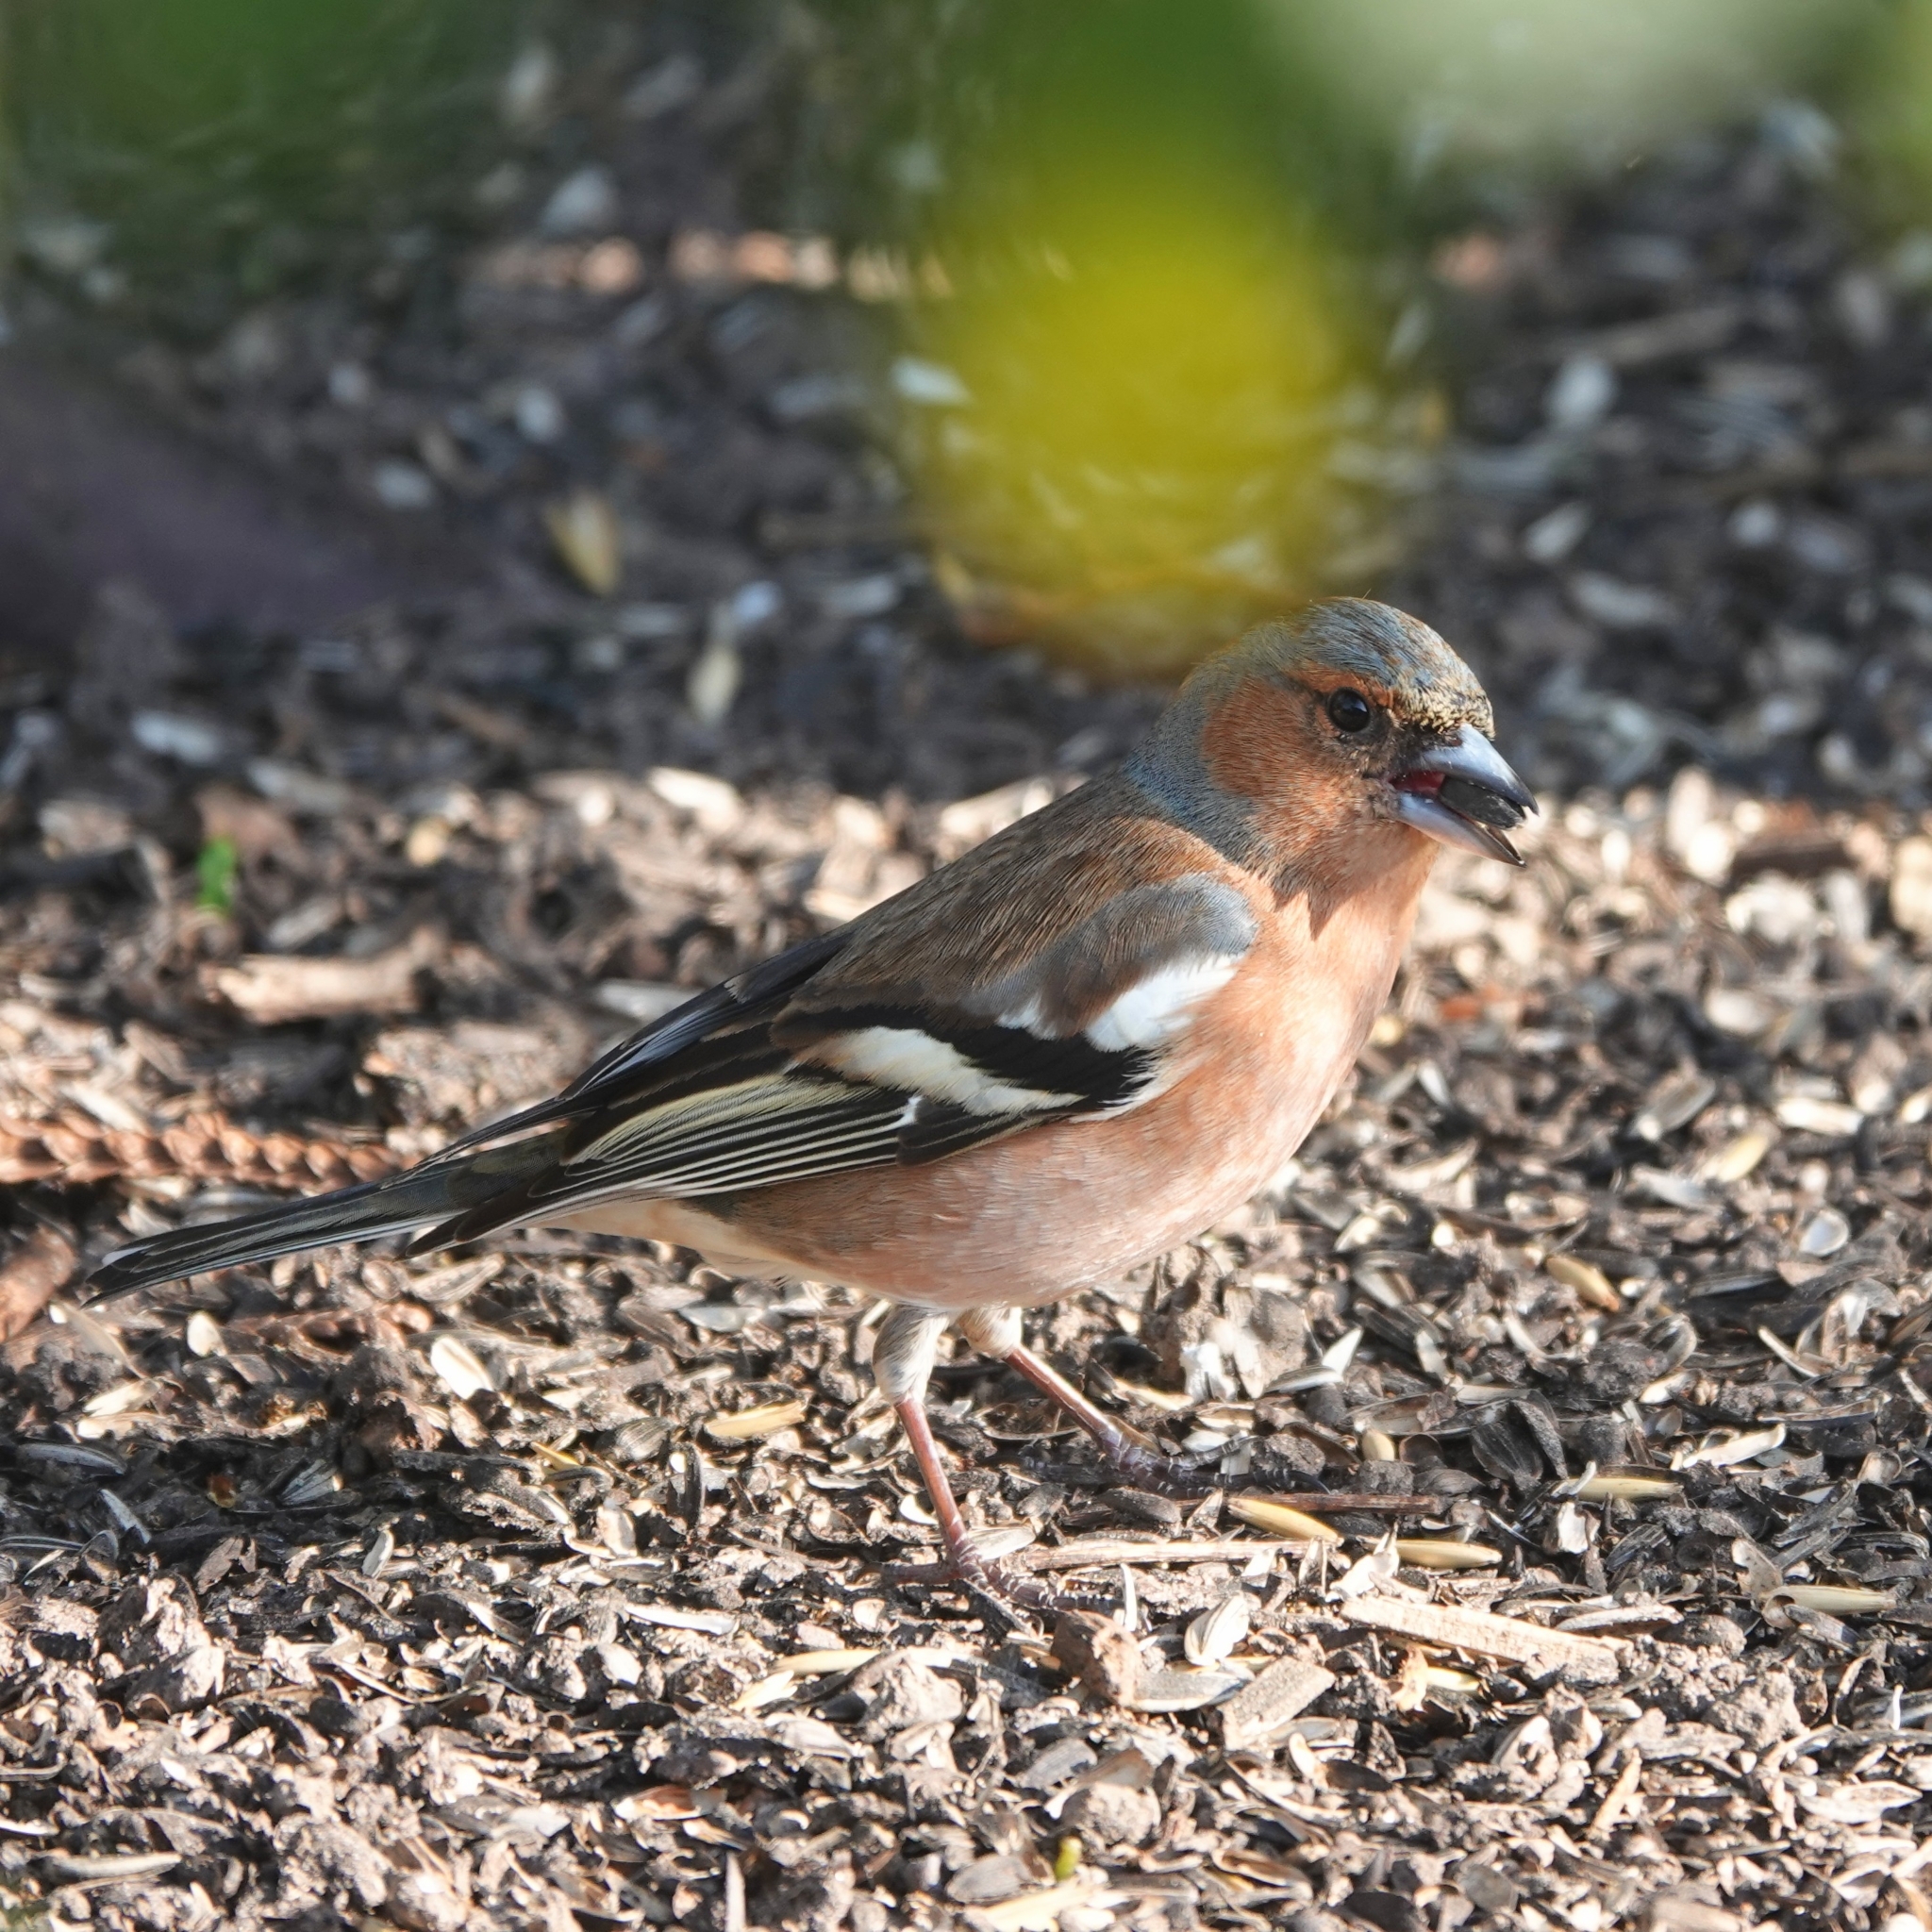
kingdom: Animalia
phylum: Chordata
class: Aves
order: Passeriformes
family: Fringillidae
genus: Fringilla
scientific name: Fringilla coelebs
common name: Common chaffinch
